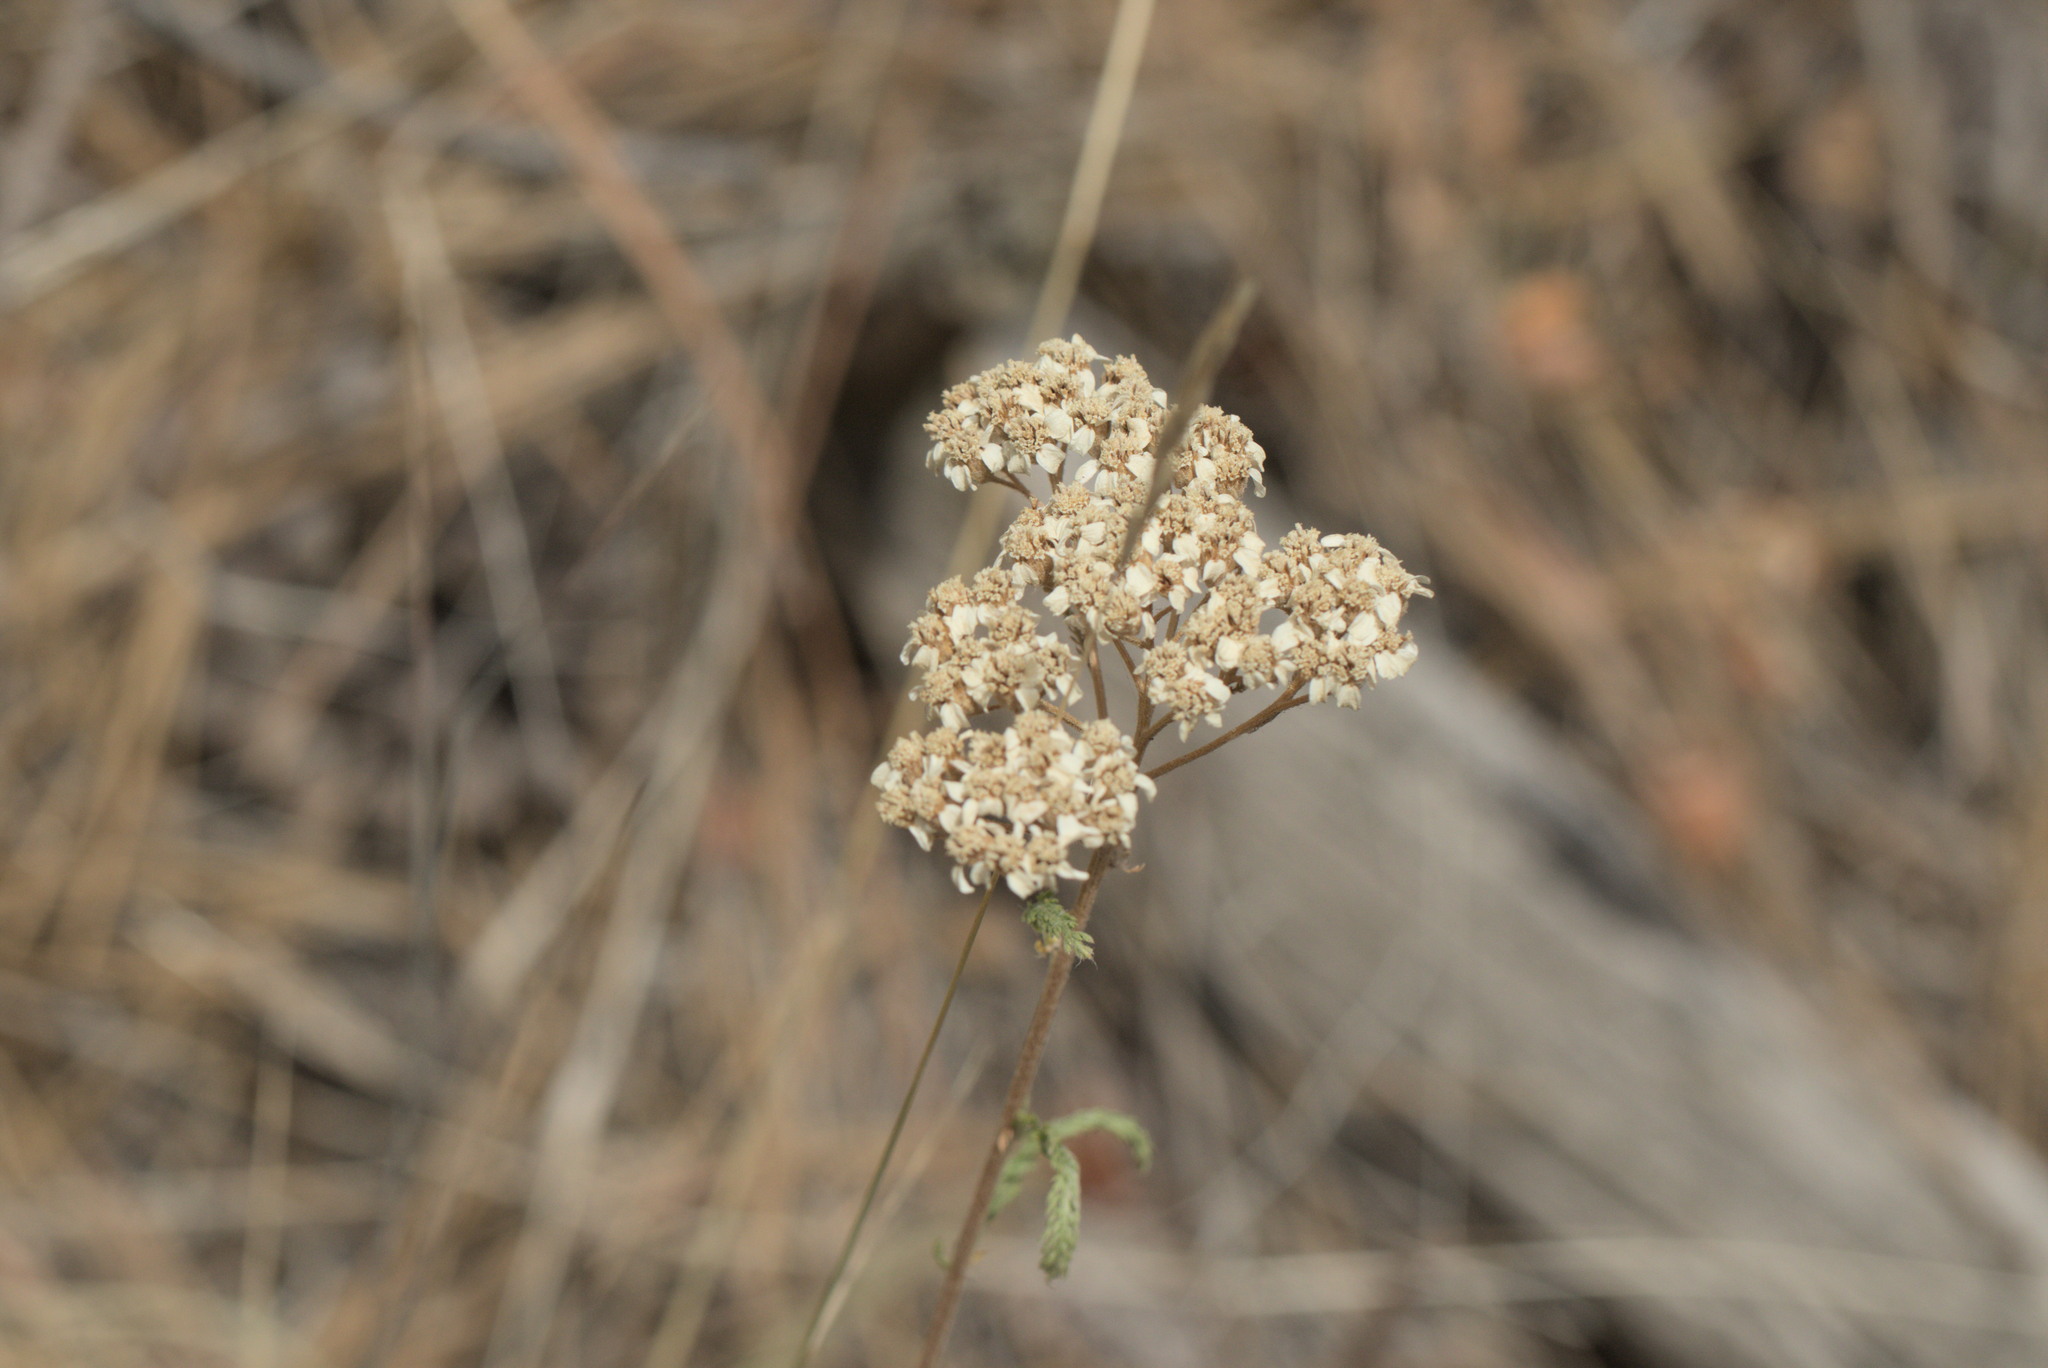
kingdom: Plantae
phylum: Tracheophyta
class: Magnoliopsida
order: Asterales
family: Asteraceae
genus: Achillea
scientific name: Achillea millefolium
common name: Yarrow
